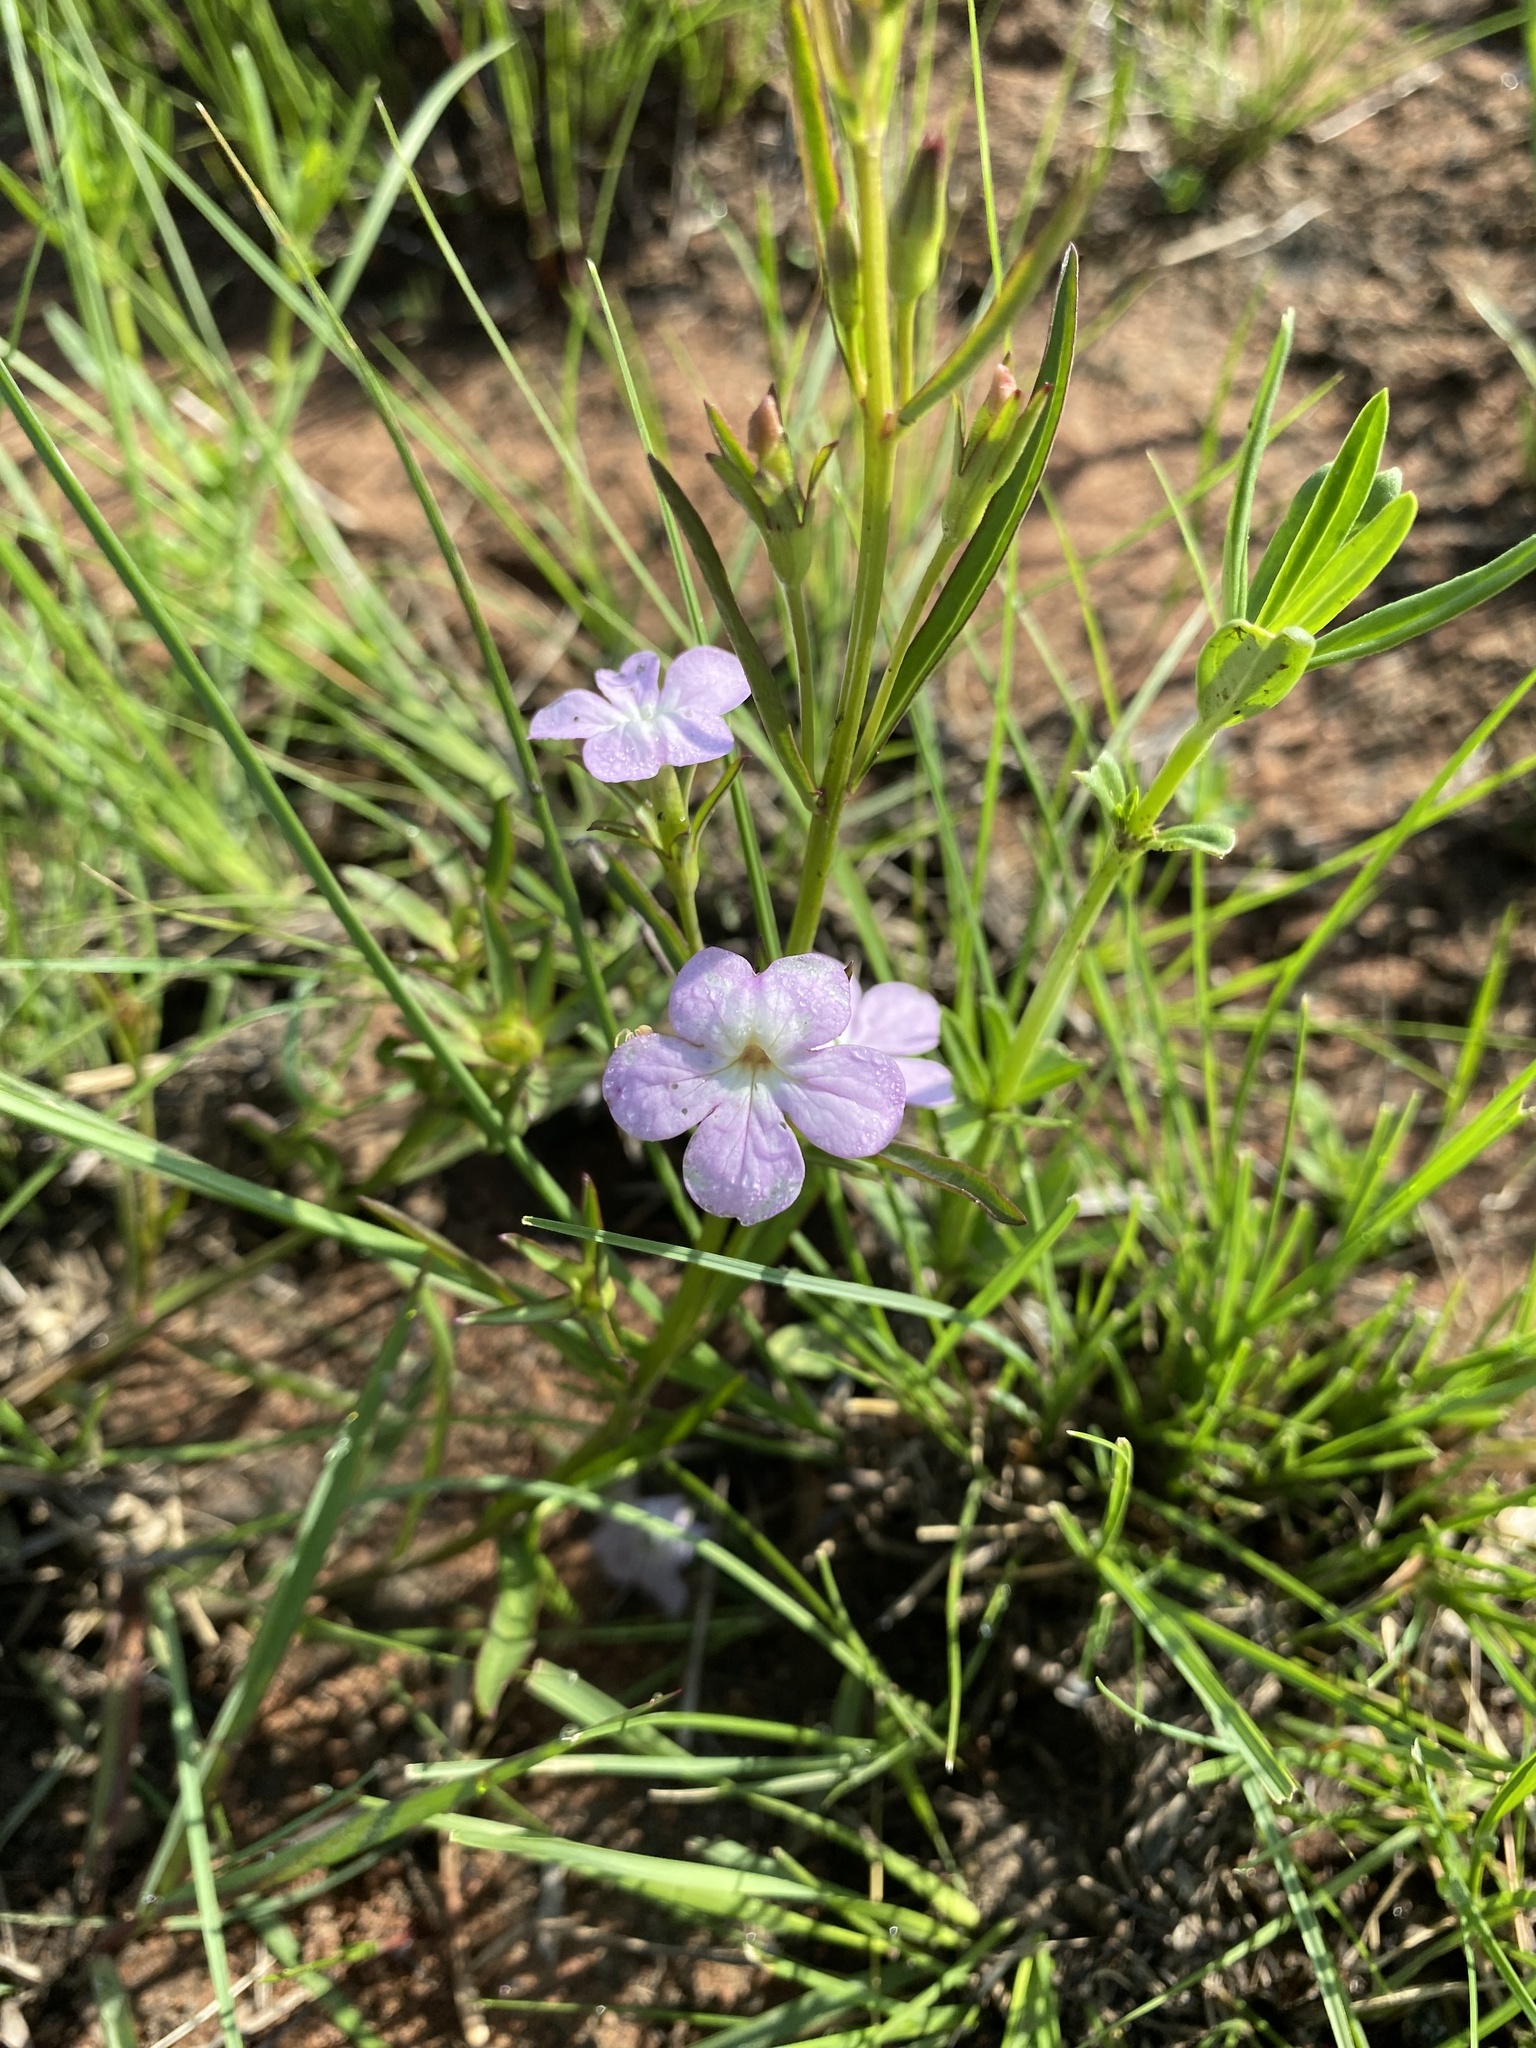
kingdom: Plantae
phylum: Tracheophyta
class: Magnoliopsida
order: Lamiales
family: Orobanchaceae
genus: Cycnium
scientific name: Cycnium tubulosum
